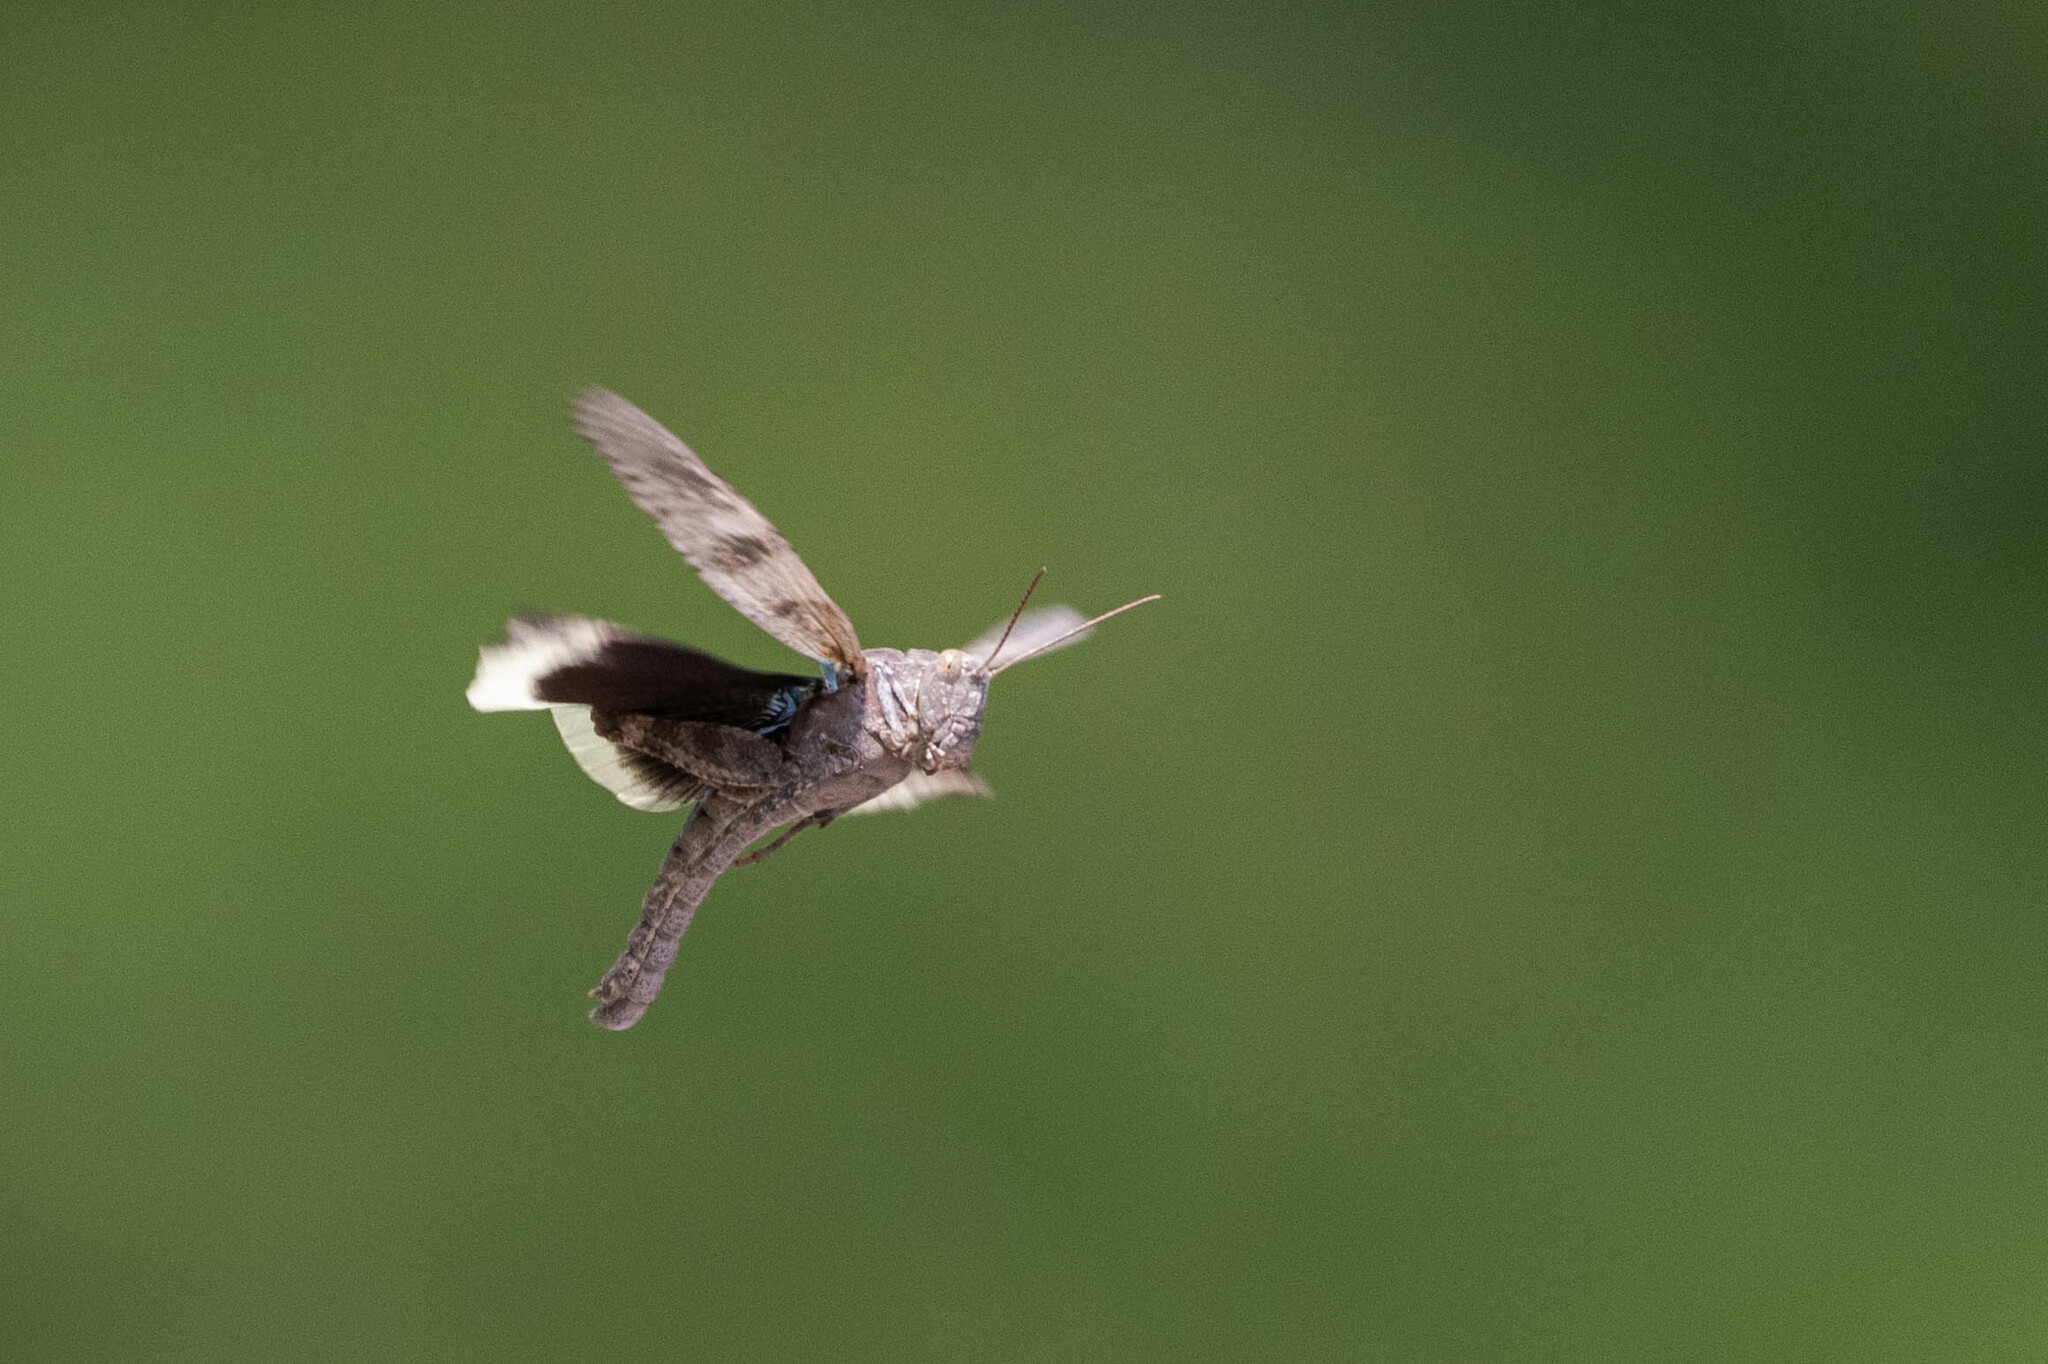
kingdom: Animalia
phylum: Arthropoda
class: Insecta
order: Orthoptera
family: Acrididae
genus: Dissosteira
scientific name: Dissosteira carolina
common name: Carolina grasshopper
